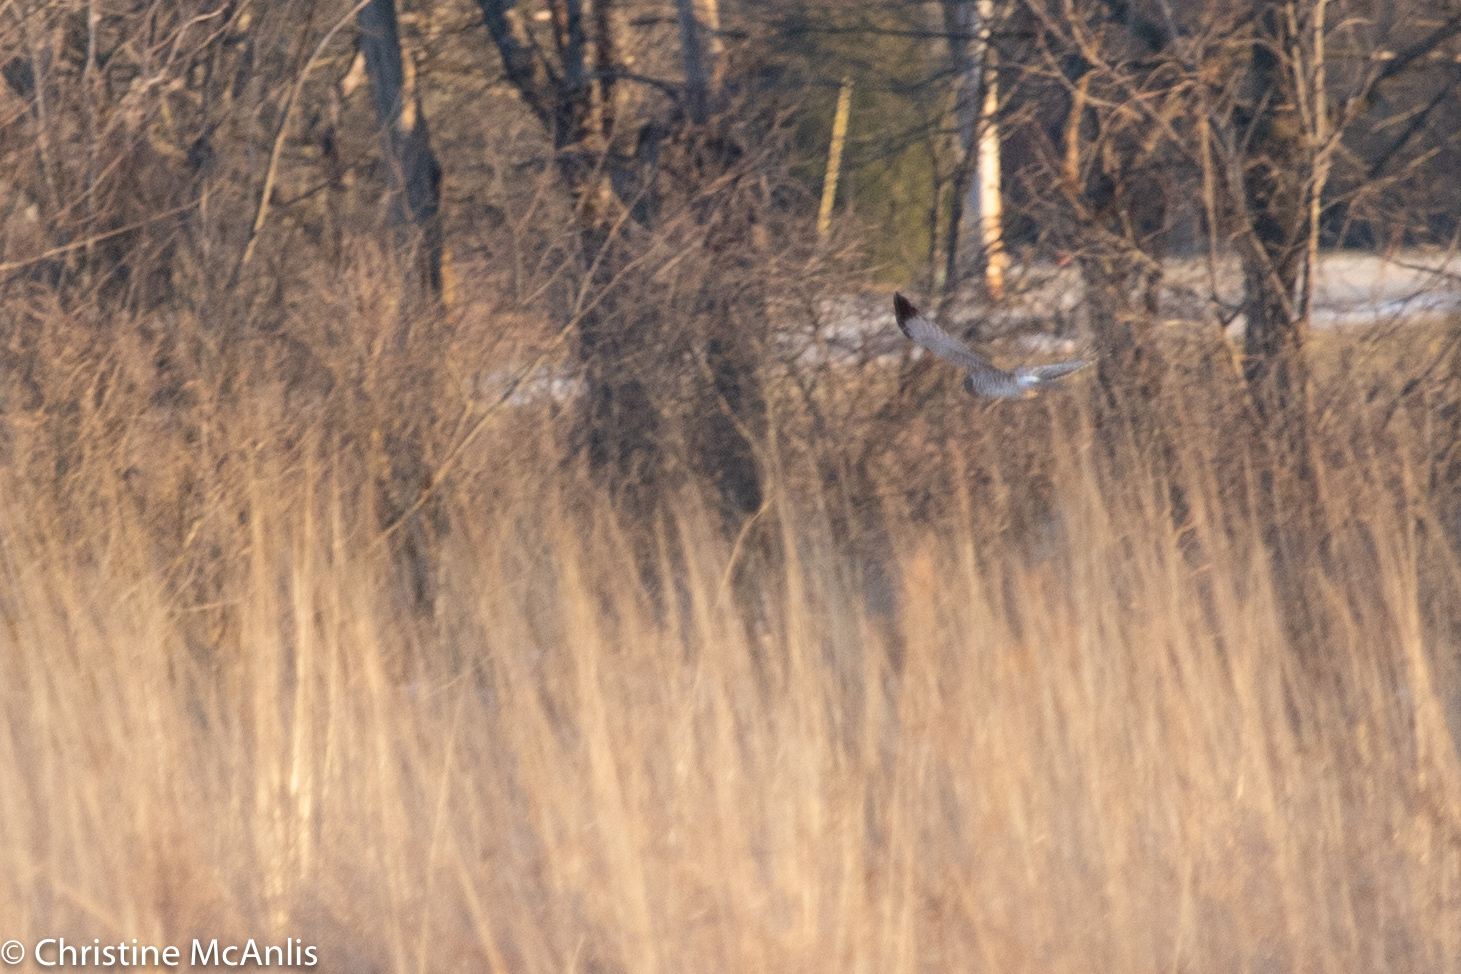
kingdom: Animalia
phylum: Chordata
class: Aves
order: Accipitriformes
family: Accipitridae
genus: Circus
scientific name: Circus cyaneus
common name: Hen harrier
